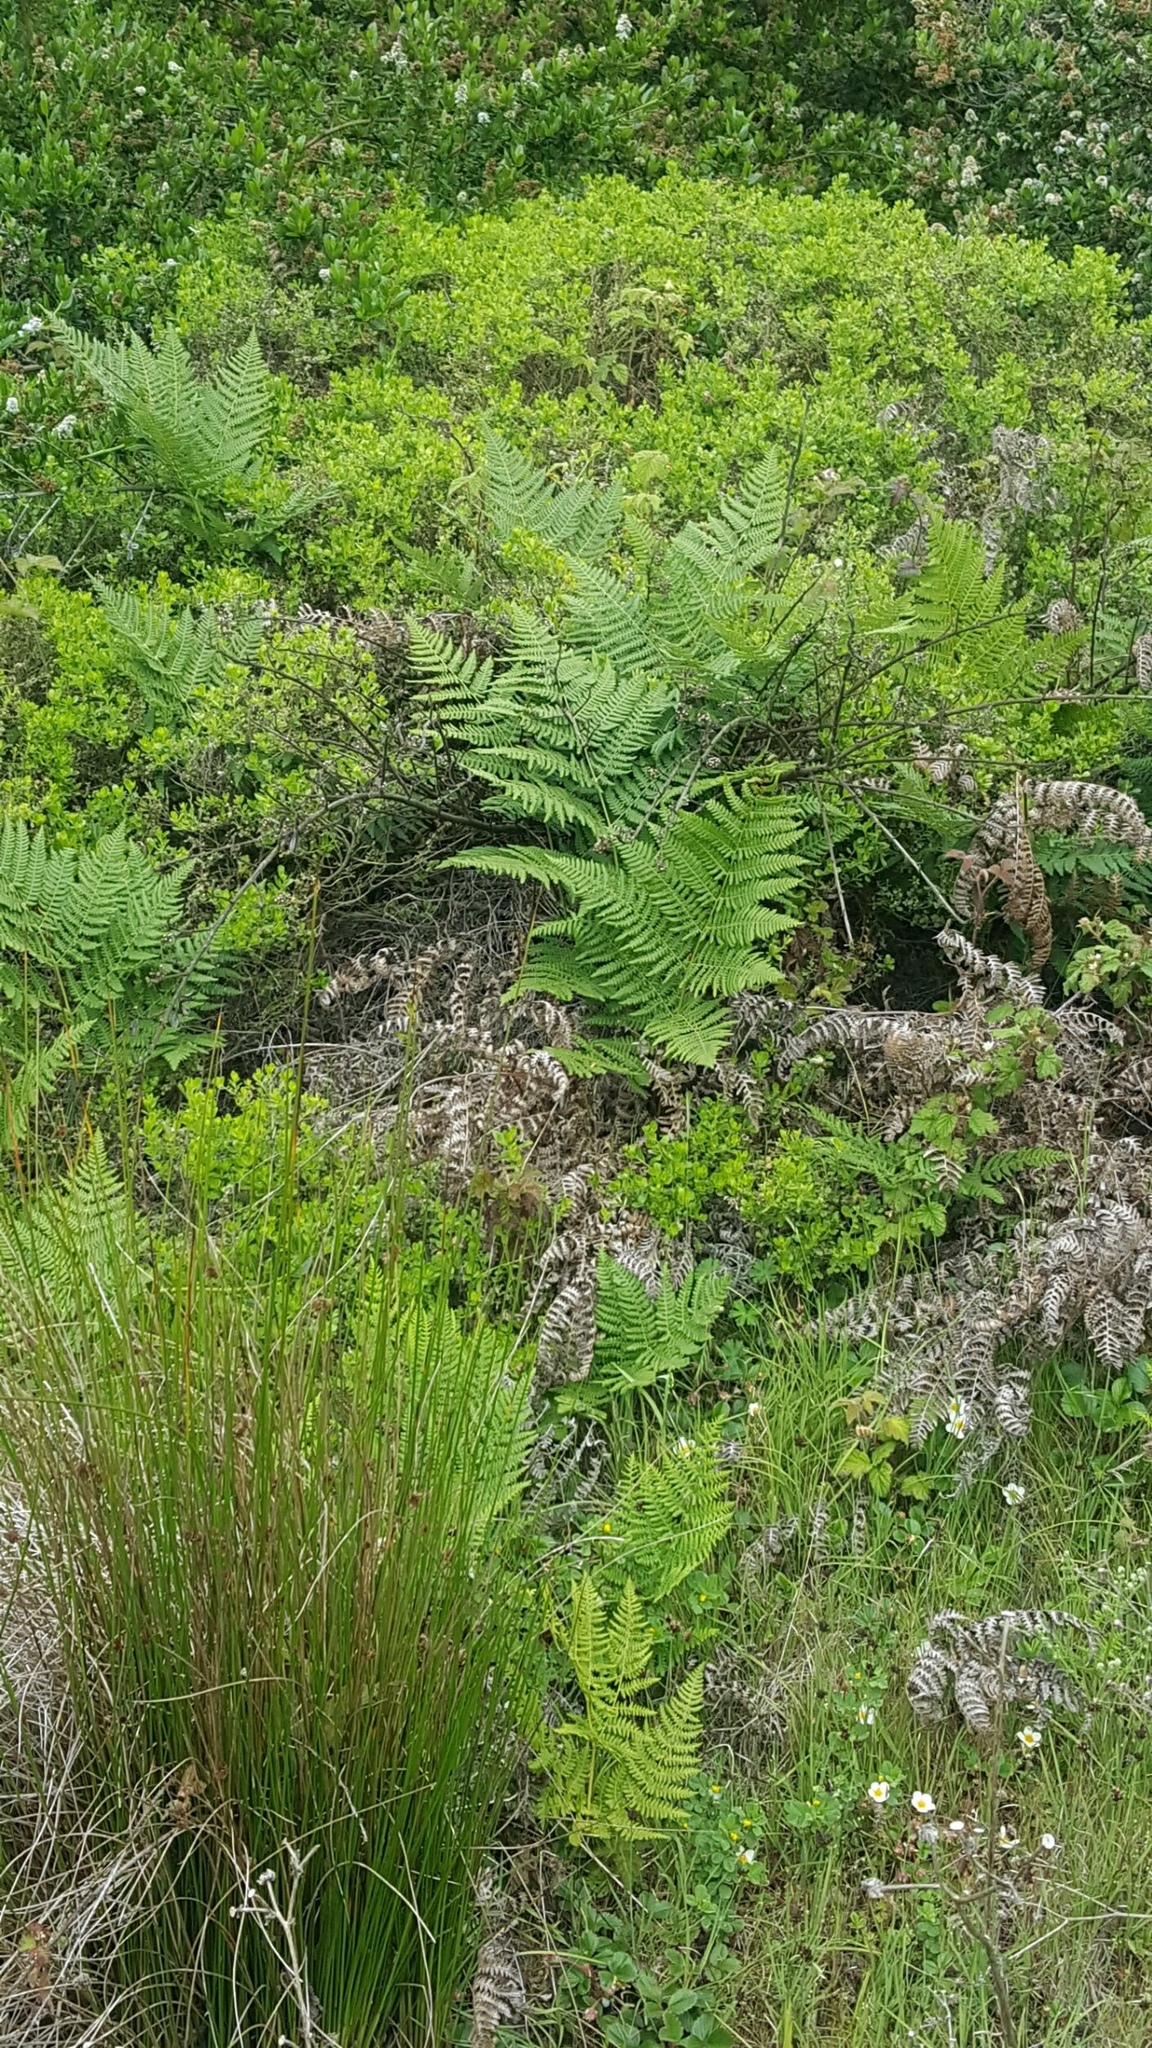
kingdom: Plantae
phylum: Tracheophyta
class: Polypodiopsida
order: Polypodiales
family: Dennstaedtiaceae
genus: Pteridium
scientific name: Pteridium aquilinum
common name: Bracken
